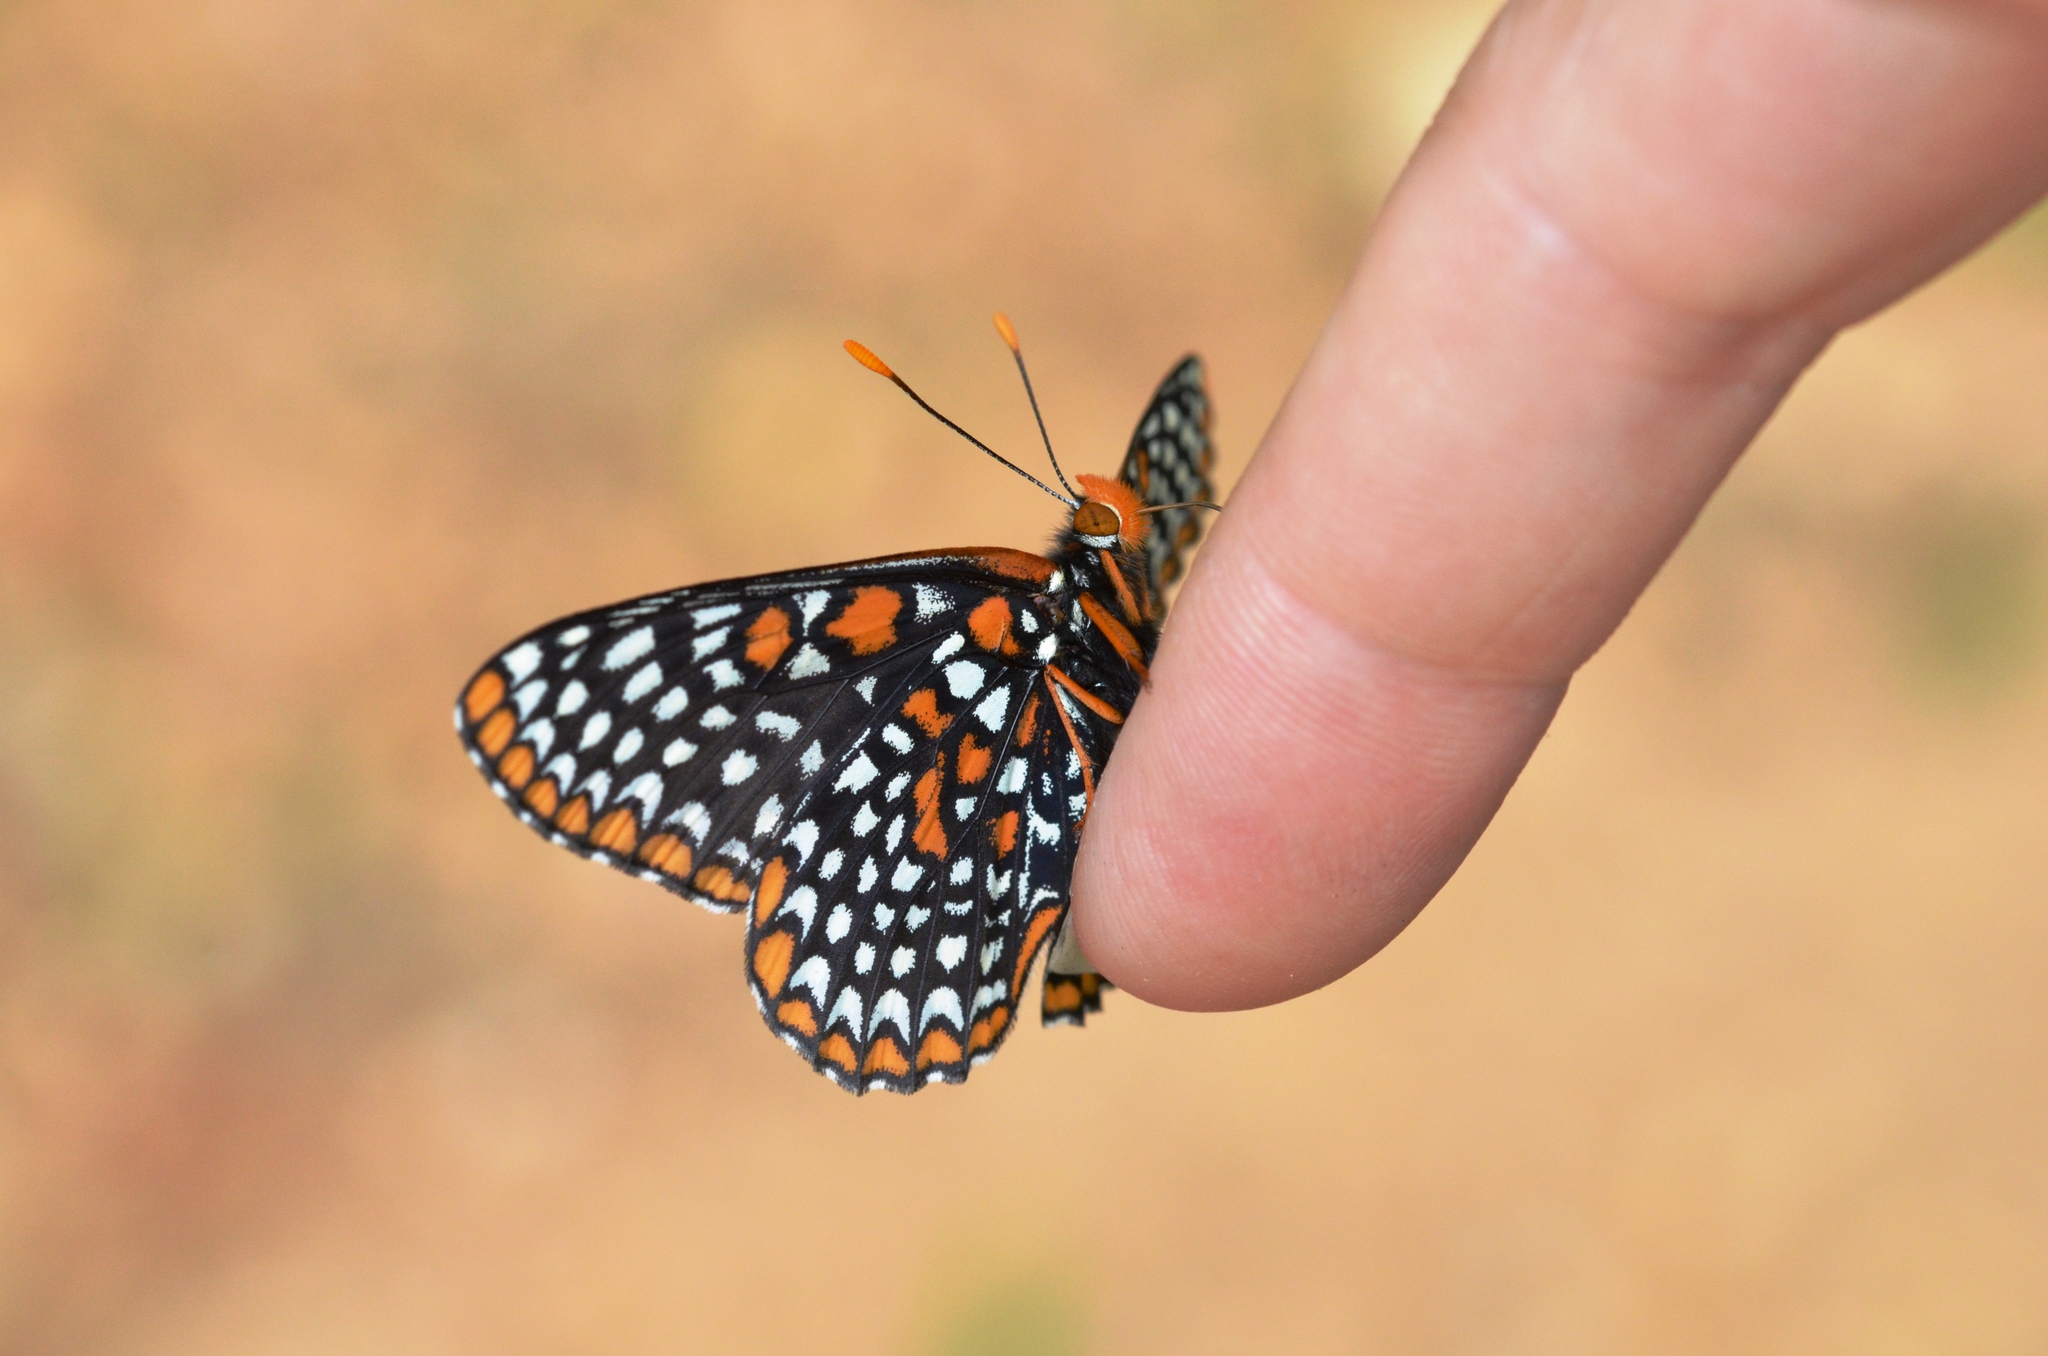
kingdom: Animalia
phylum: Arthropoda
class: Insecta
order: Lepidoptera
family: Nymphalidae
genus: Euphydryas
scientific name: Euphydryas phaeton
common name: Baltimore checkerspot
